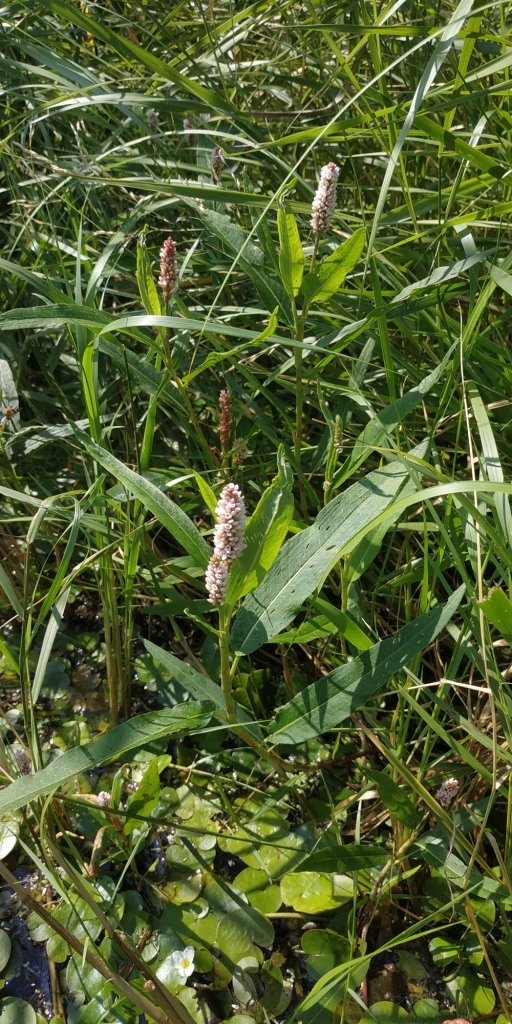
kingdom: Plantae
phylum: Tracheophyta
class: Magnoliopsida
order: Caryophyllales
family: Polygonaceae
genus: Persicaria
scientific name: Persicaria amphibia
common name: Amphibious bistort
